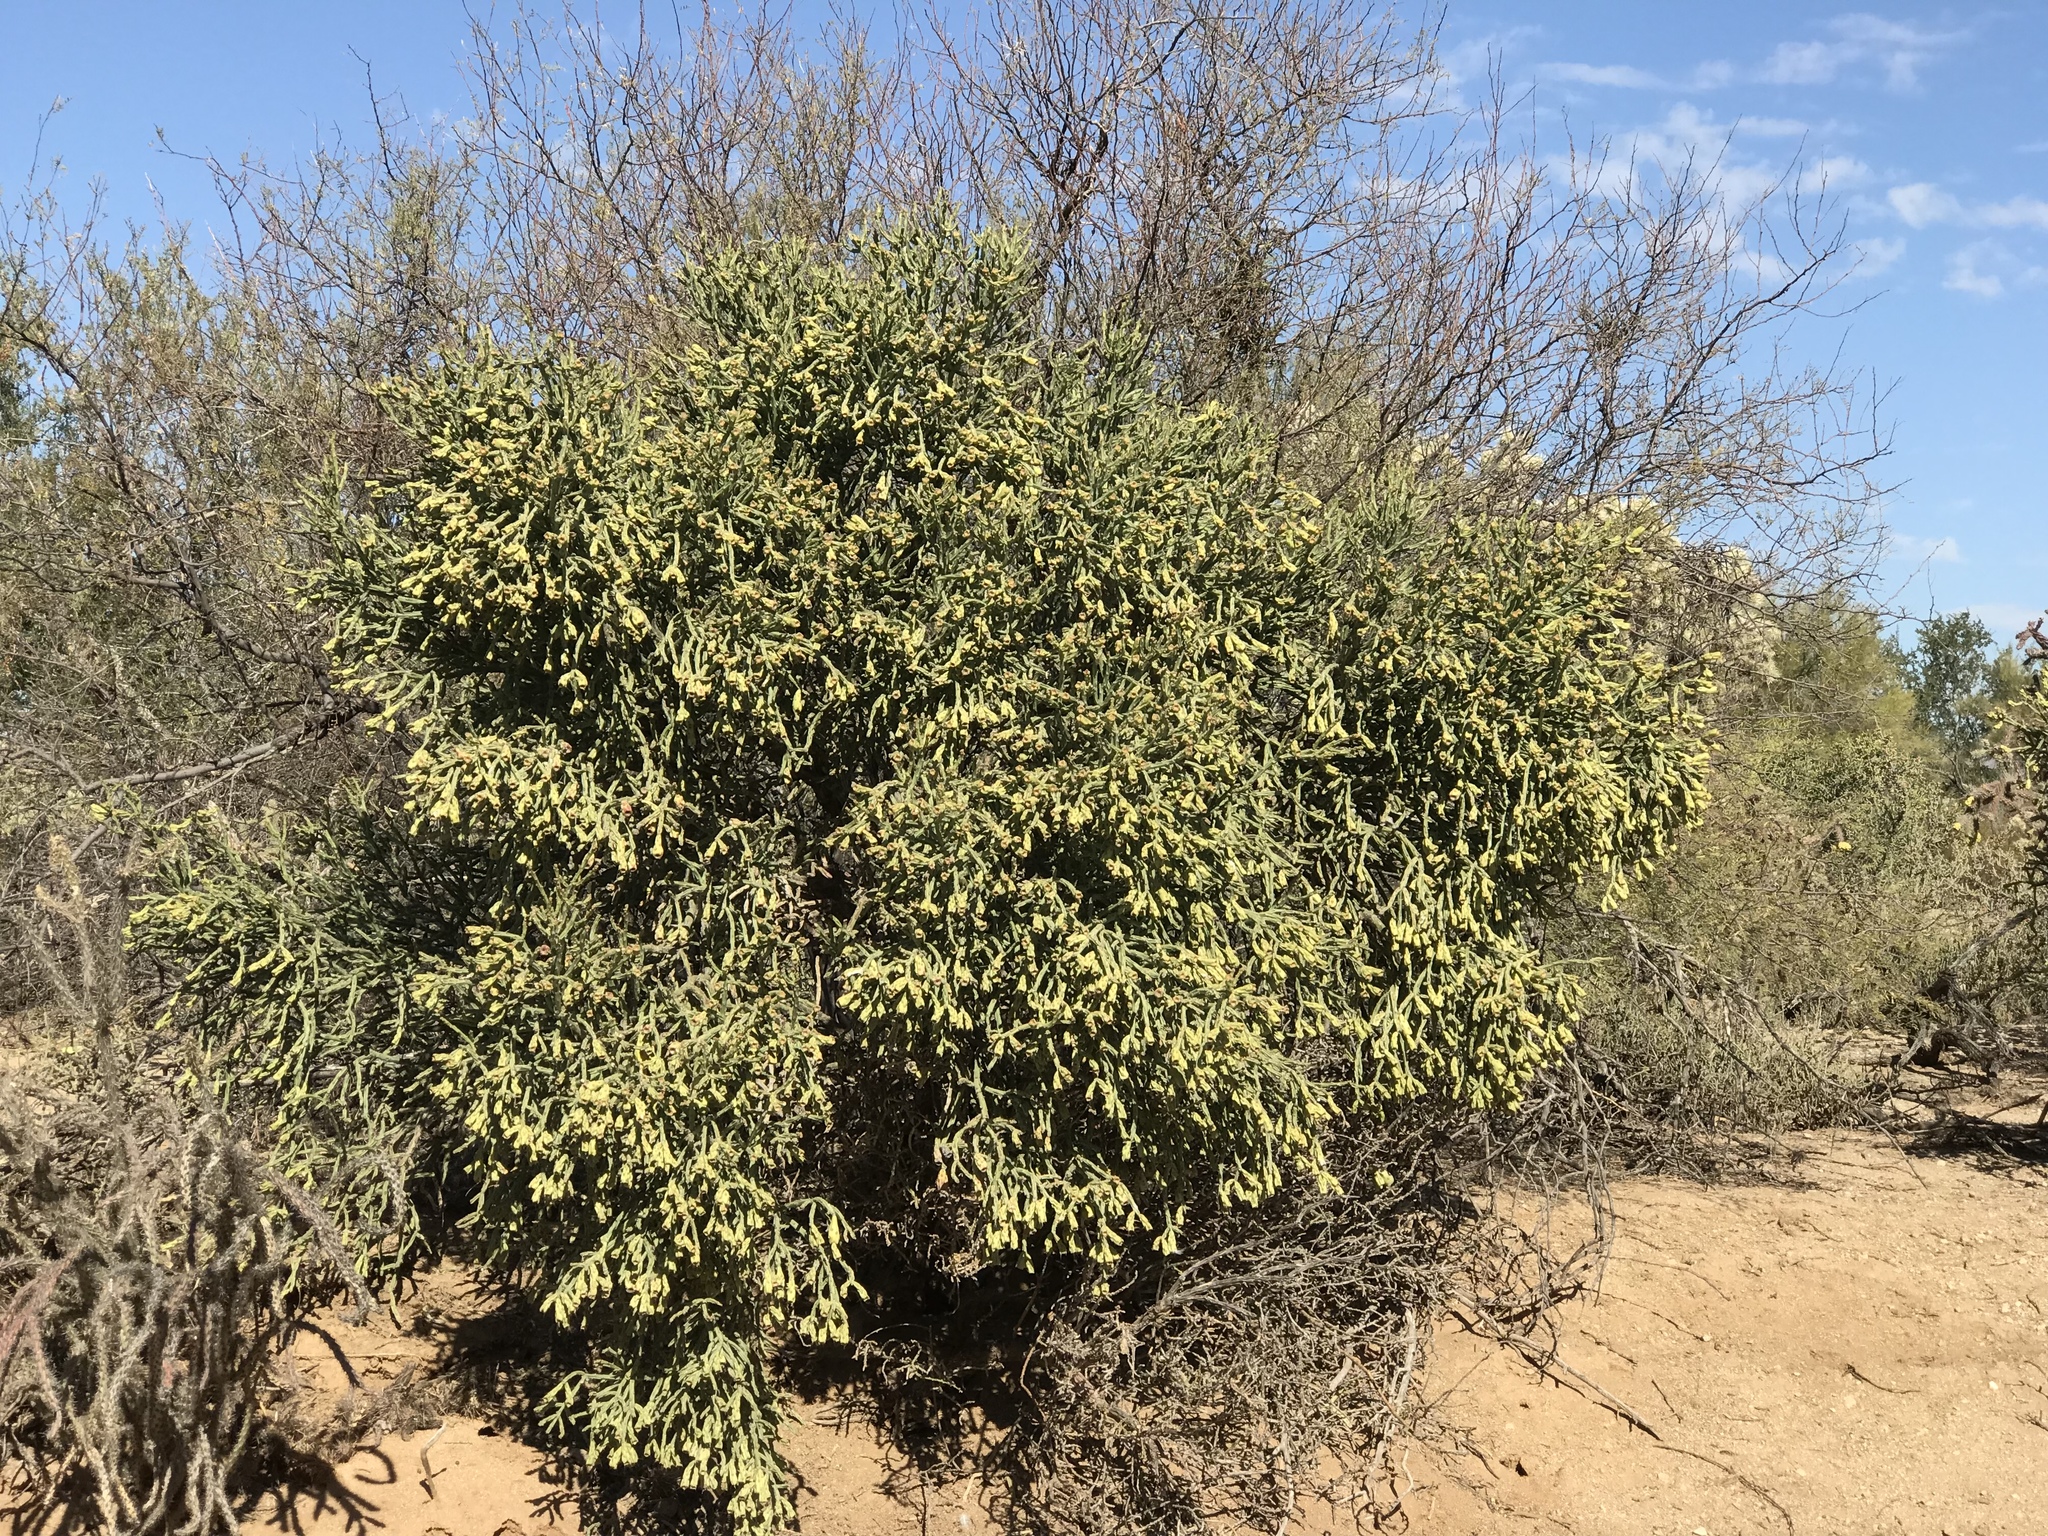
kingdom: Plantae
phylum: Tracheophyta
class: Magnoliopsida
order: Caryophyllales
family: Cactaceae
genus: Cylindropuntia
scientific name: Cylindropuntia arbuscula
